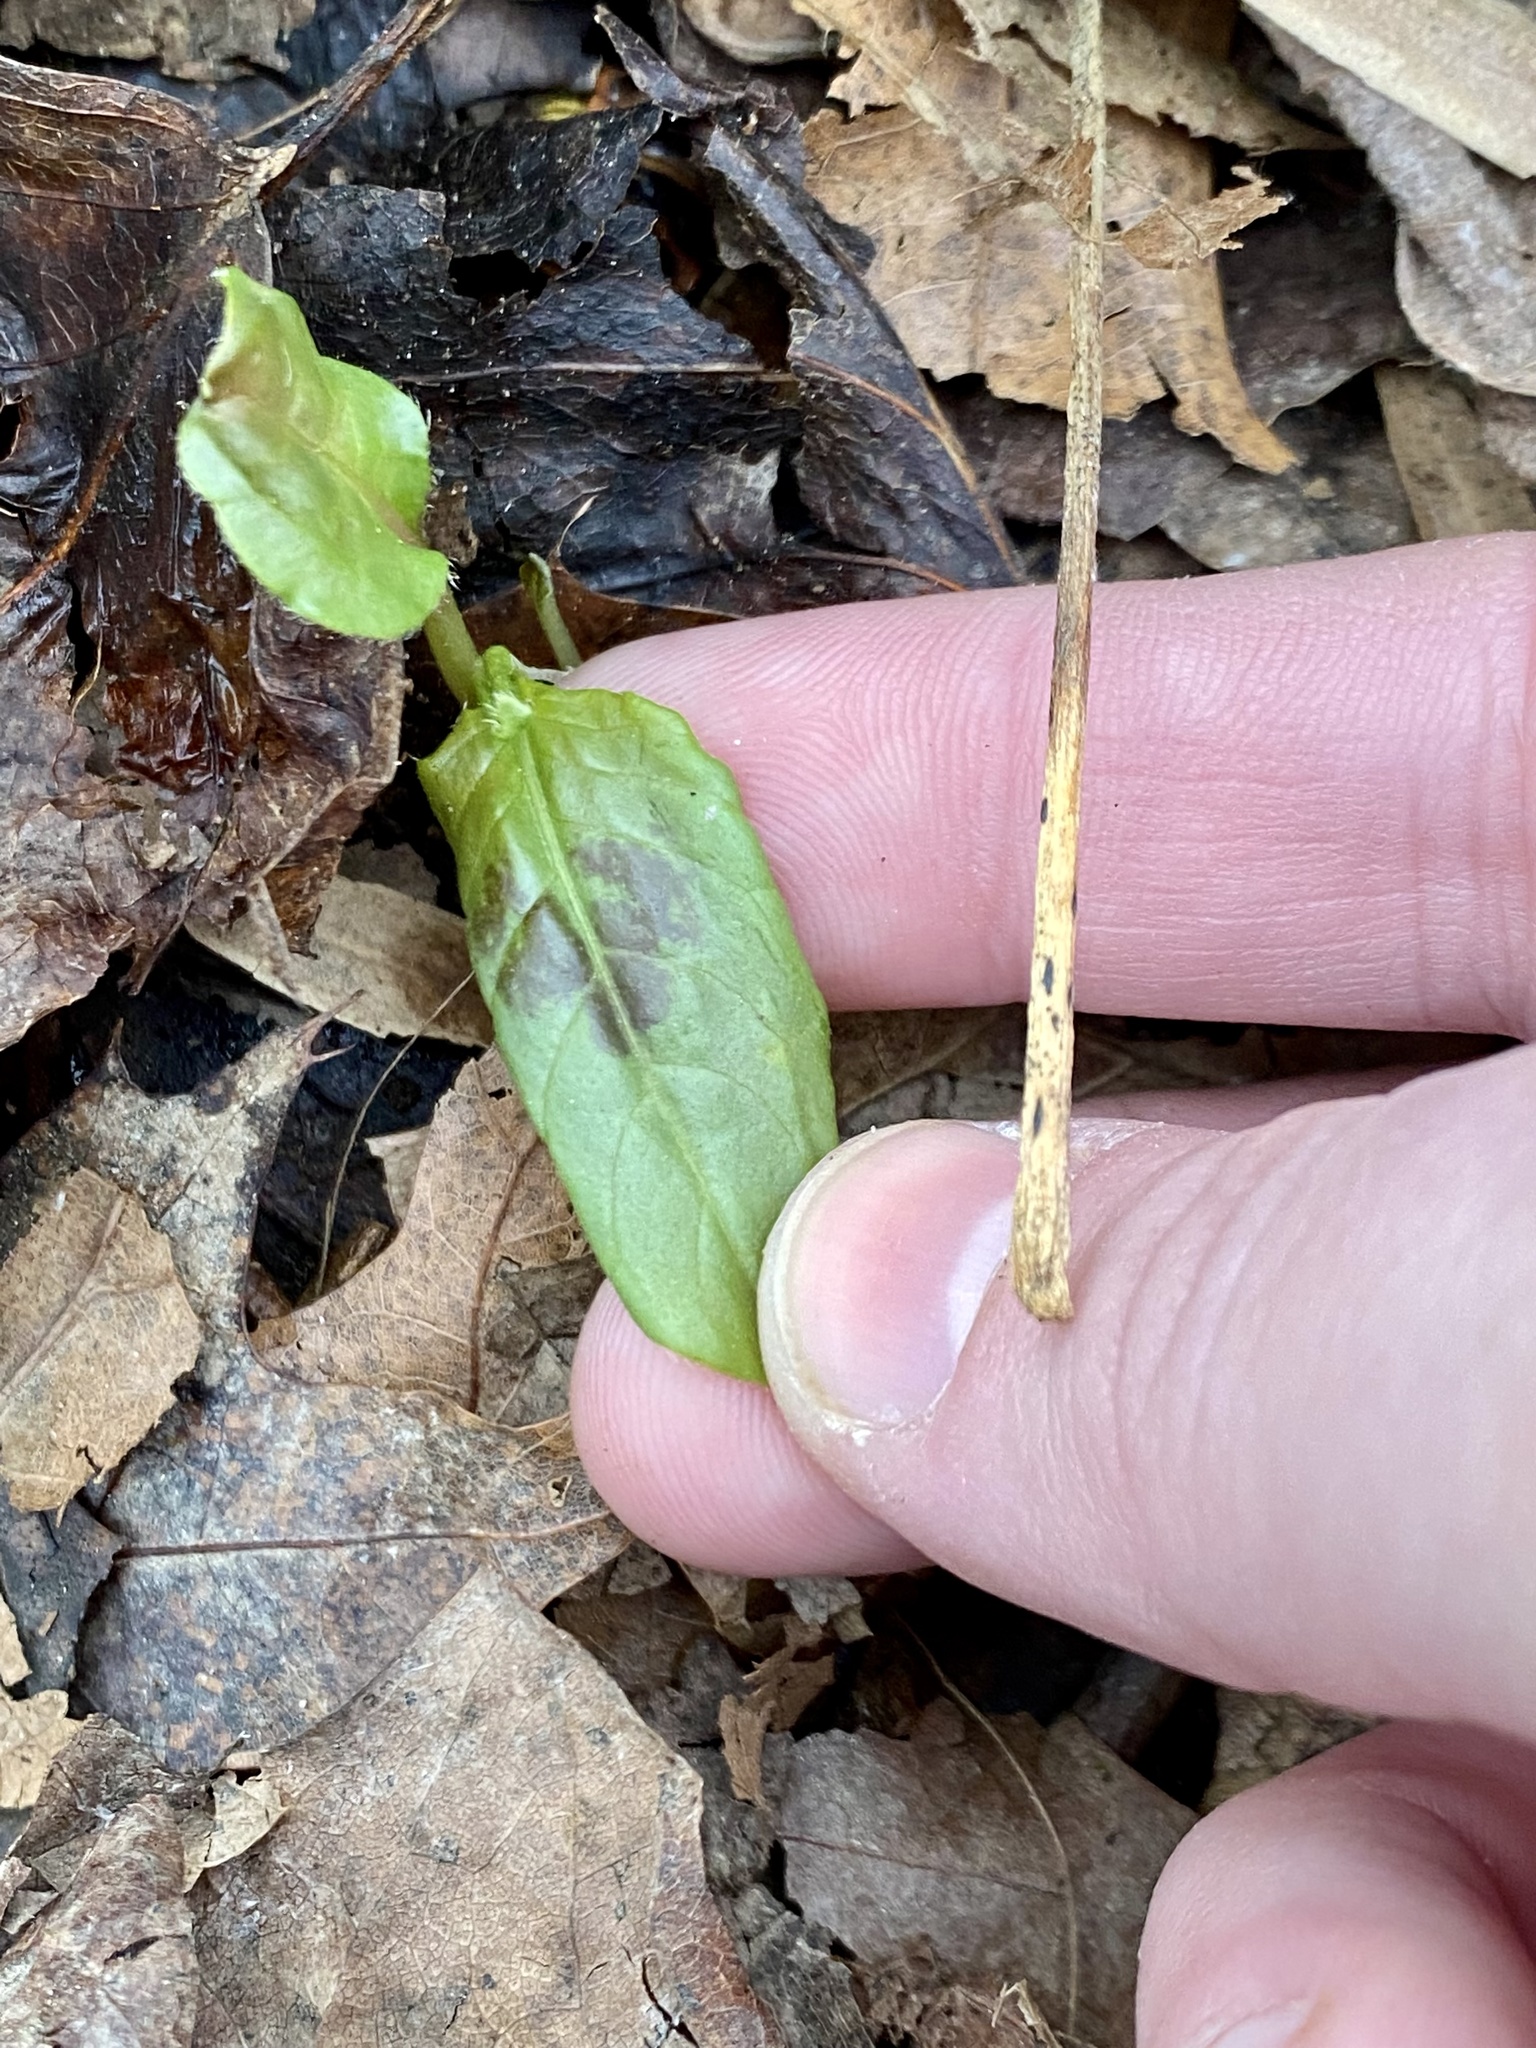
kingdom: Plantae
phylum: Tracheophyta
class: Magnoliopsida
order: Caryophyllales
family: Polygonaceae
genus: Persicaria
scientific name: Persicaria virginiana
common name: Jumpseed
